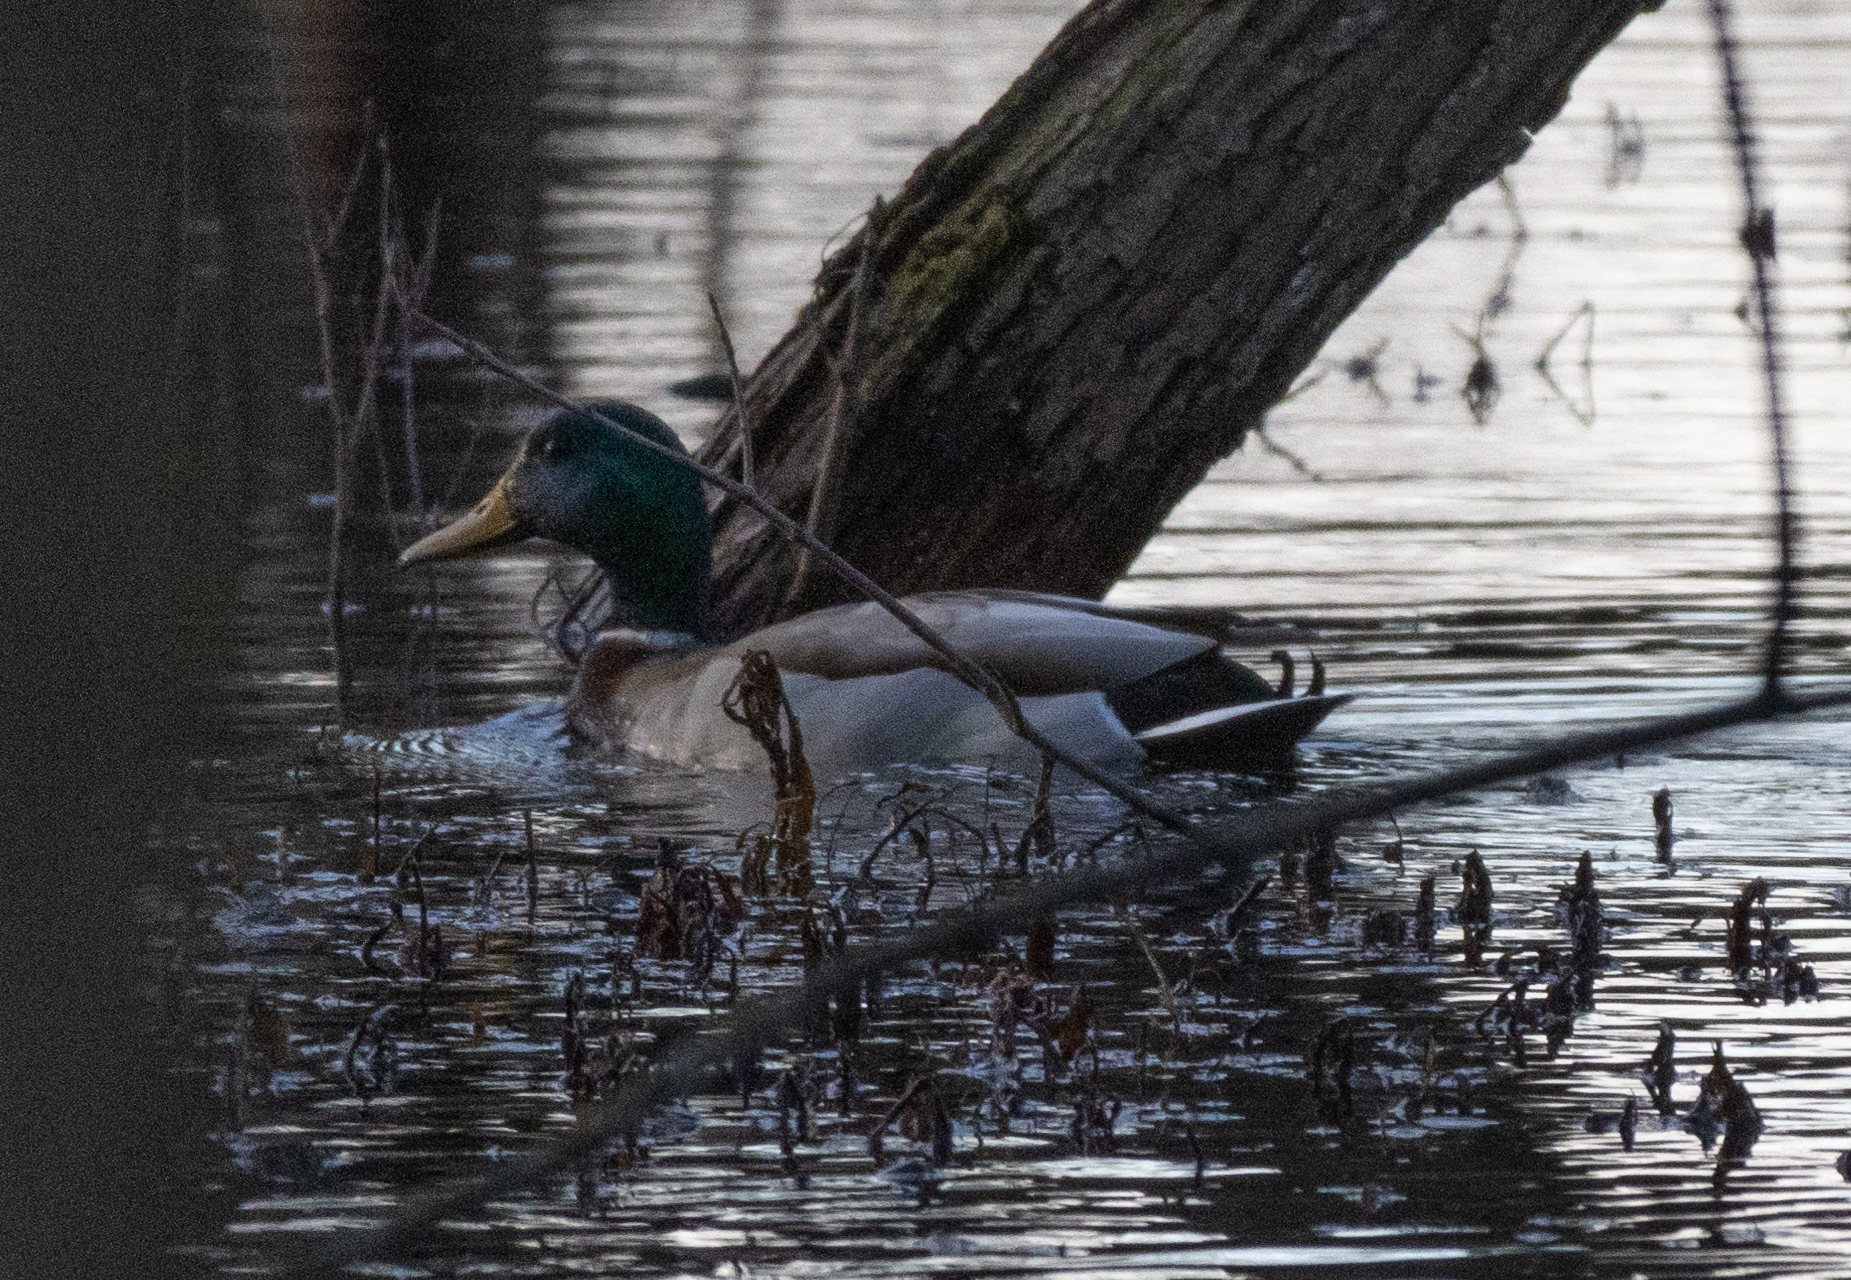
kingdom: Animalia
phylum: Chordata
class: Aves
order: Anseriformes
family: Anatidae
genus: Anas
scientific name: Anas platyrhynchos
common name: Mallard
